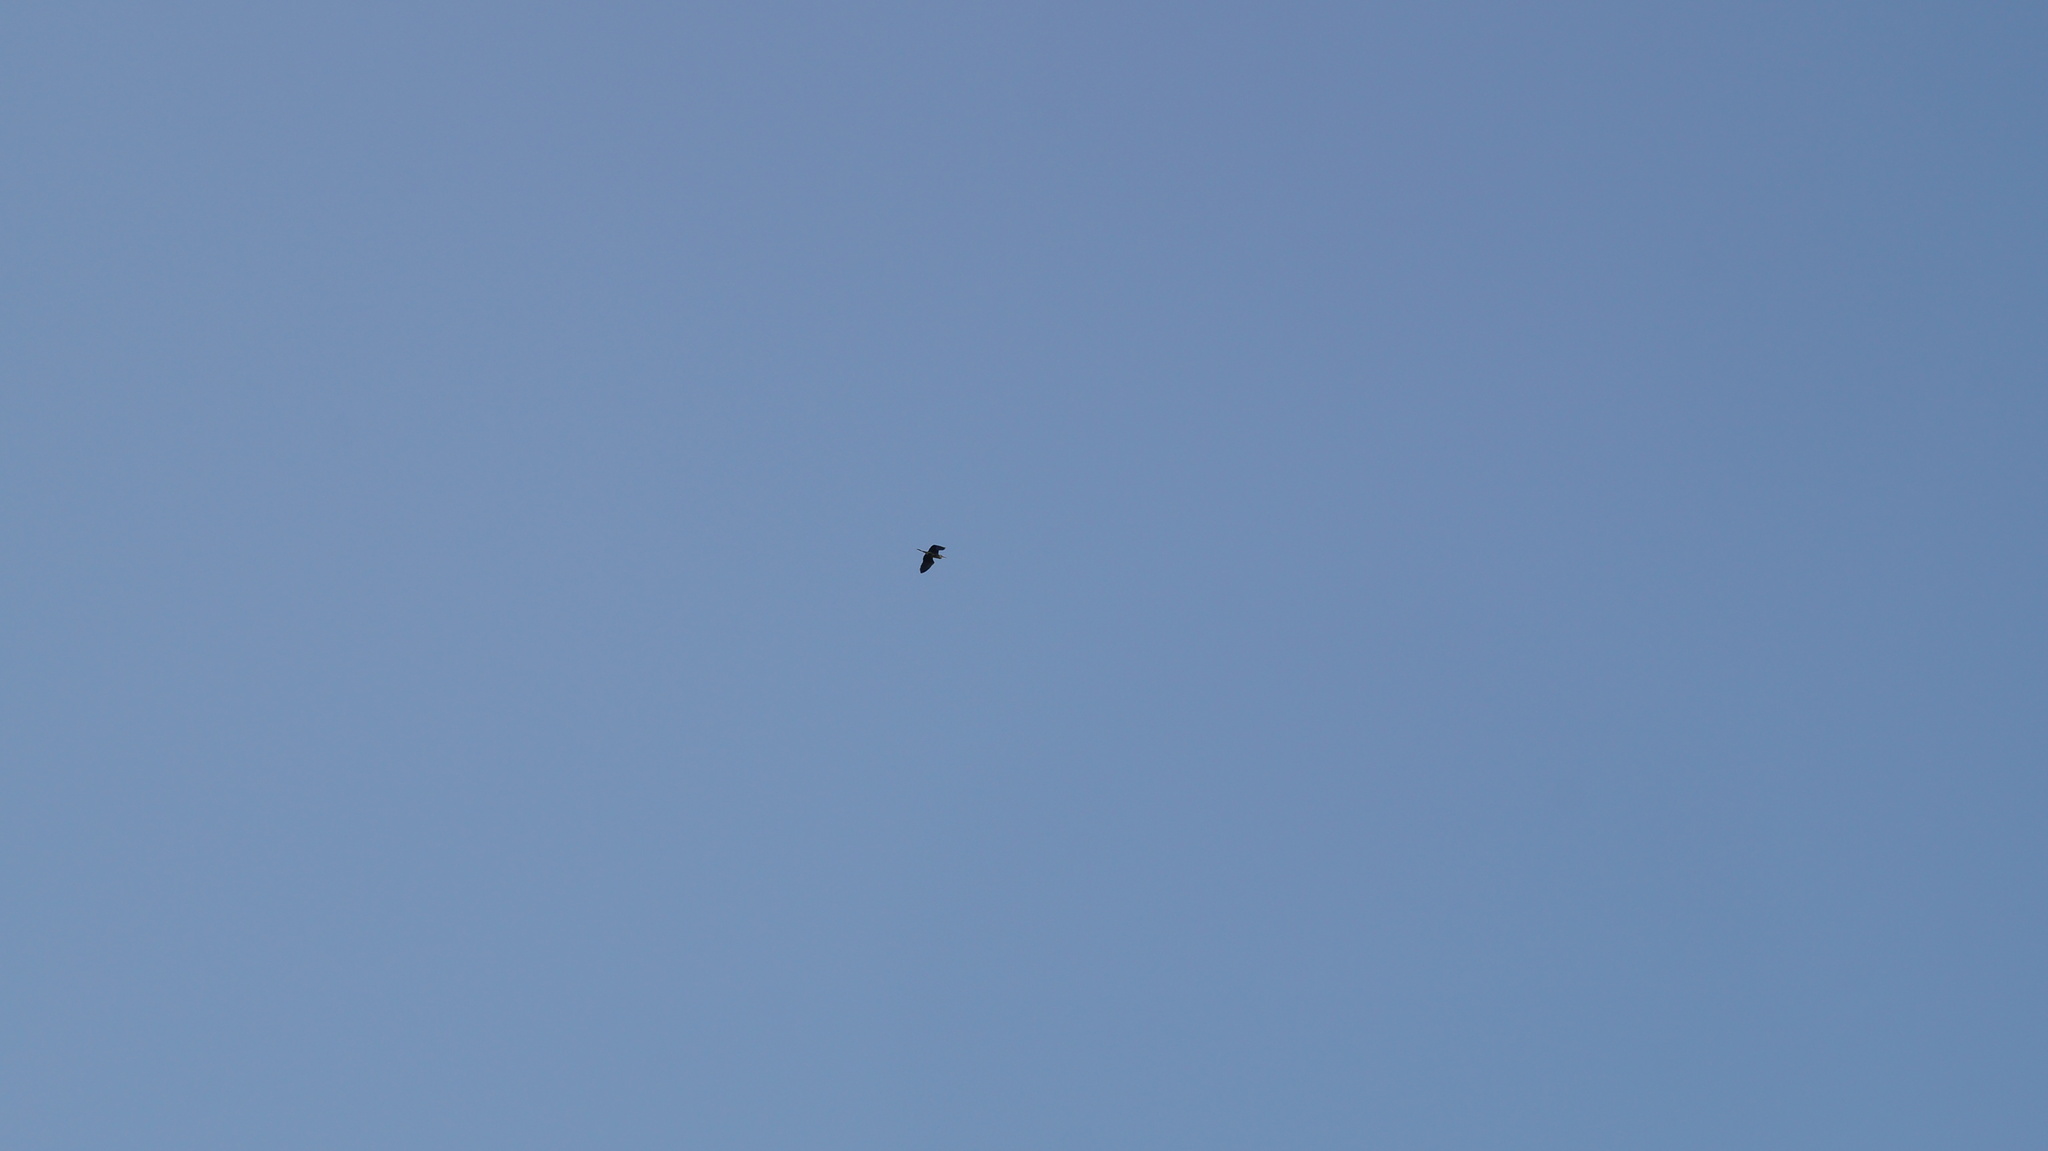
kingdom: Animalia
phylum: Chordata
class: Aves
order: Pelecaniformes
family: Ardeidae
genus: Ardea
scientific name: Ardea cinerea
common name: Grey heron
